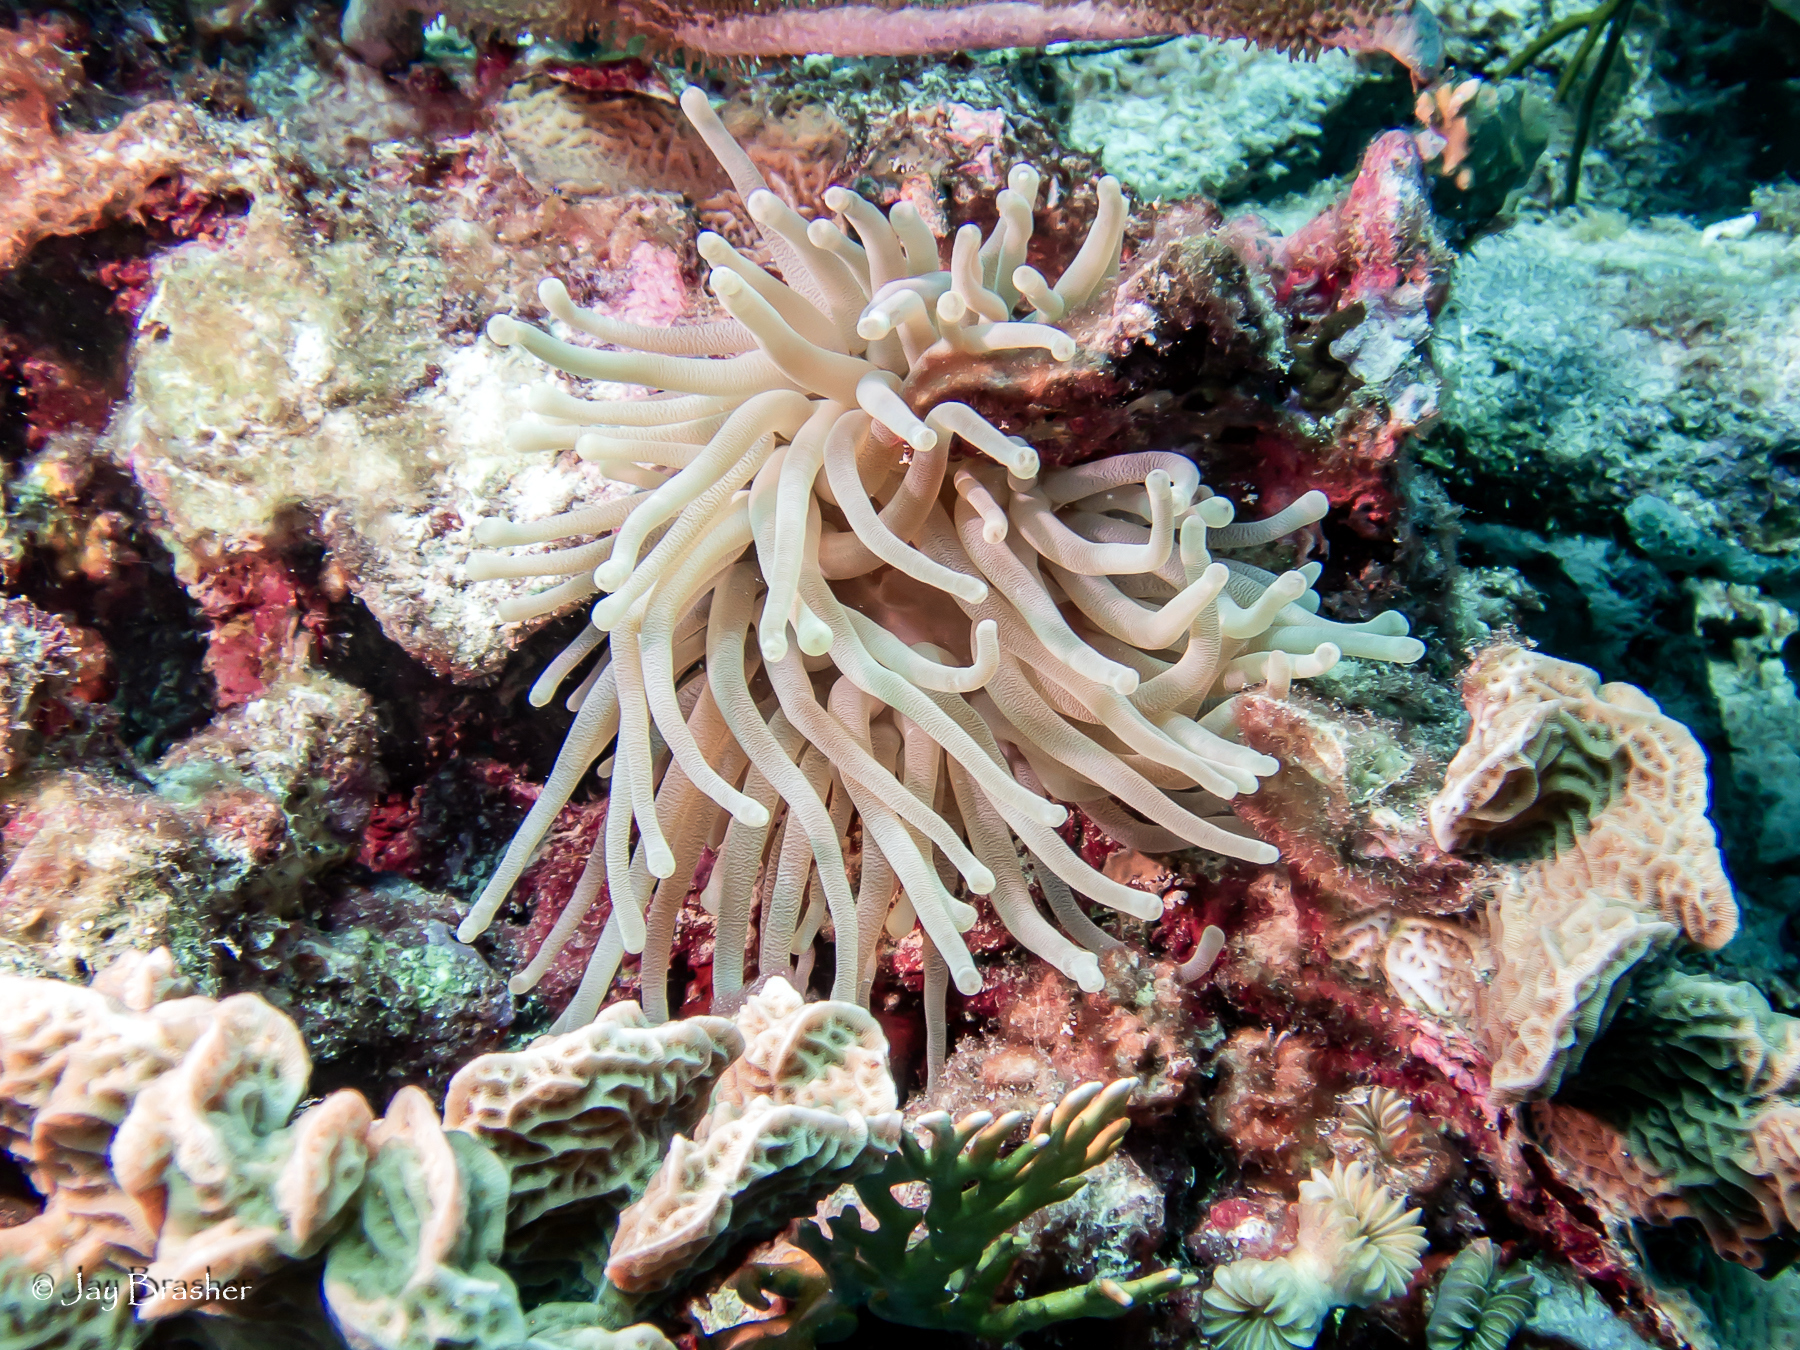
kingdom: Animalia
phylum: Cnidaria
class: Anthozoa
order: Actiniaria
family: Actiniidae
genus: Condylactis
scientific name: Condylactis gigantea
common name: Giant caribbean anemone
